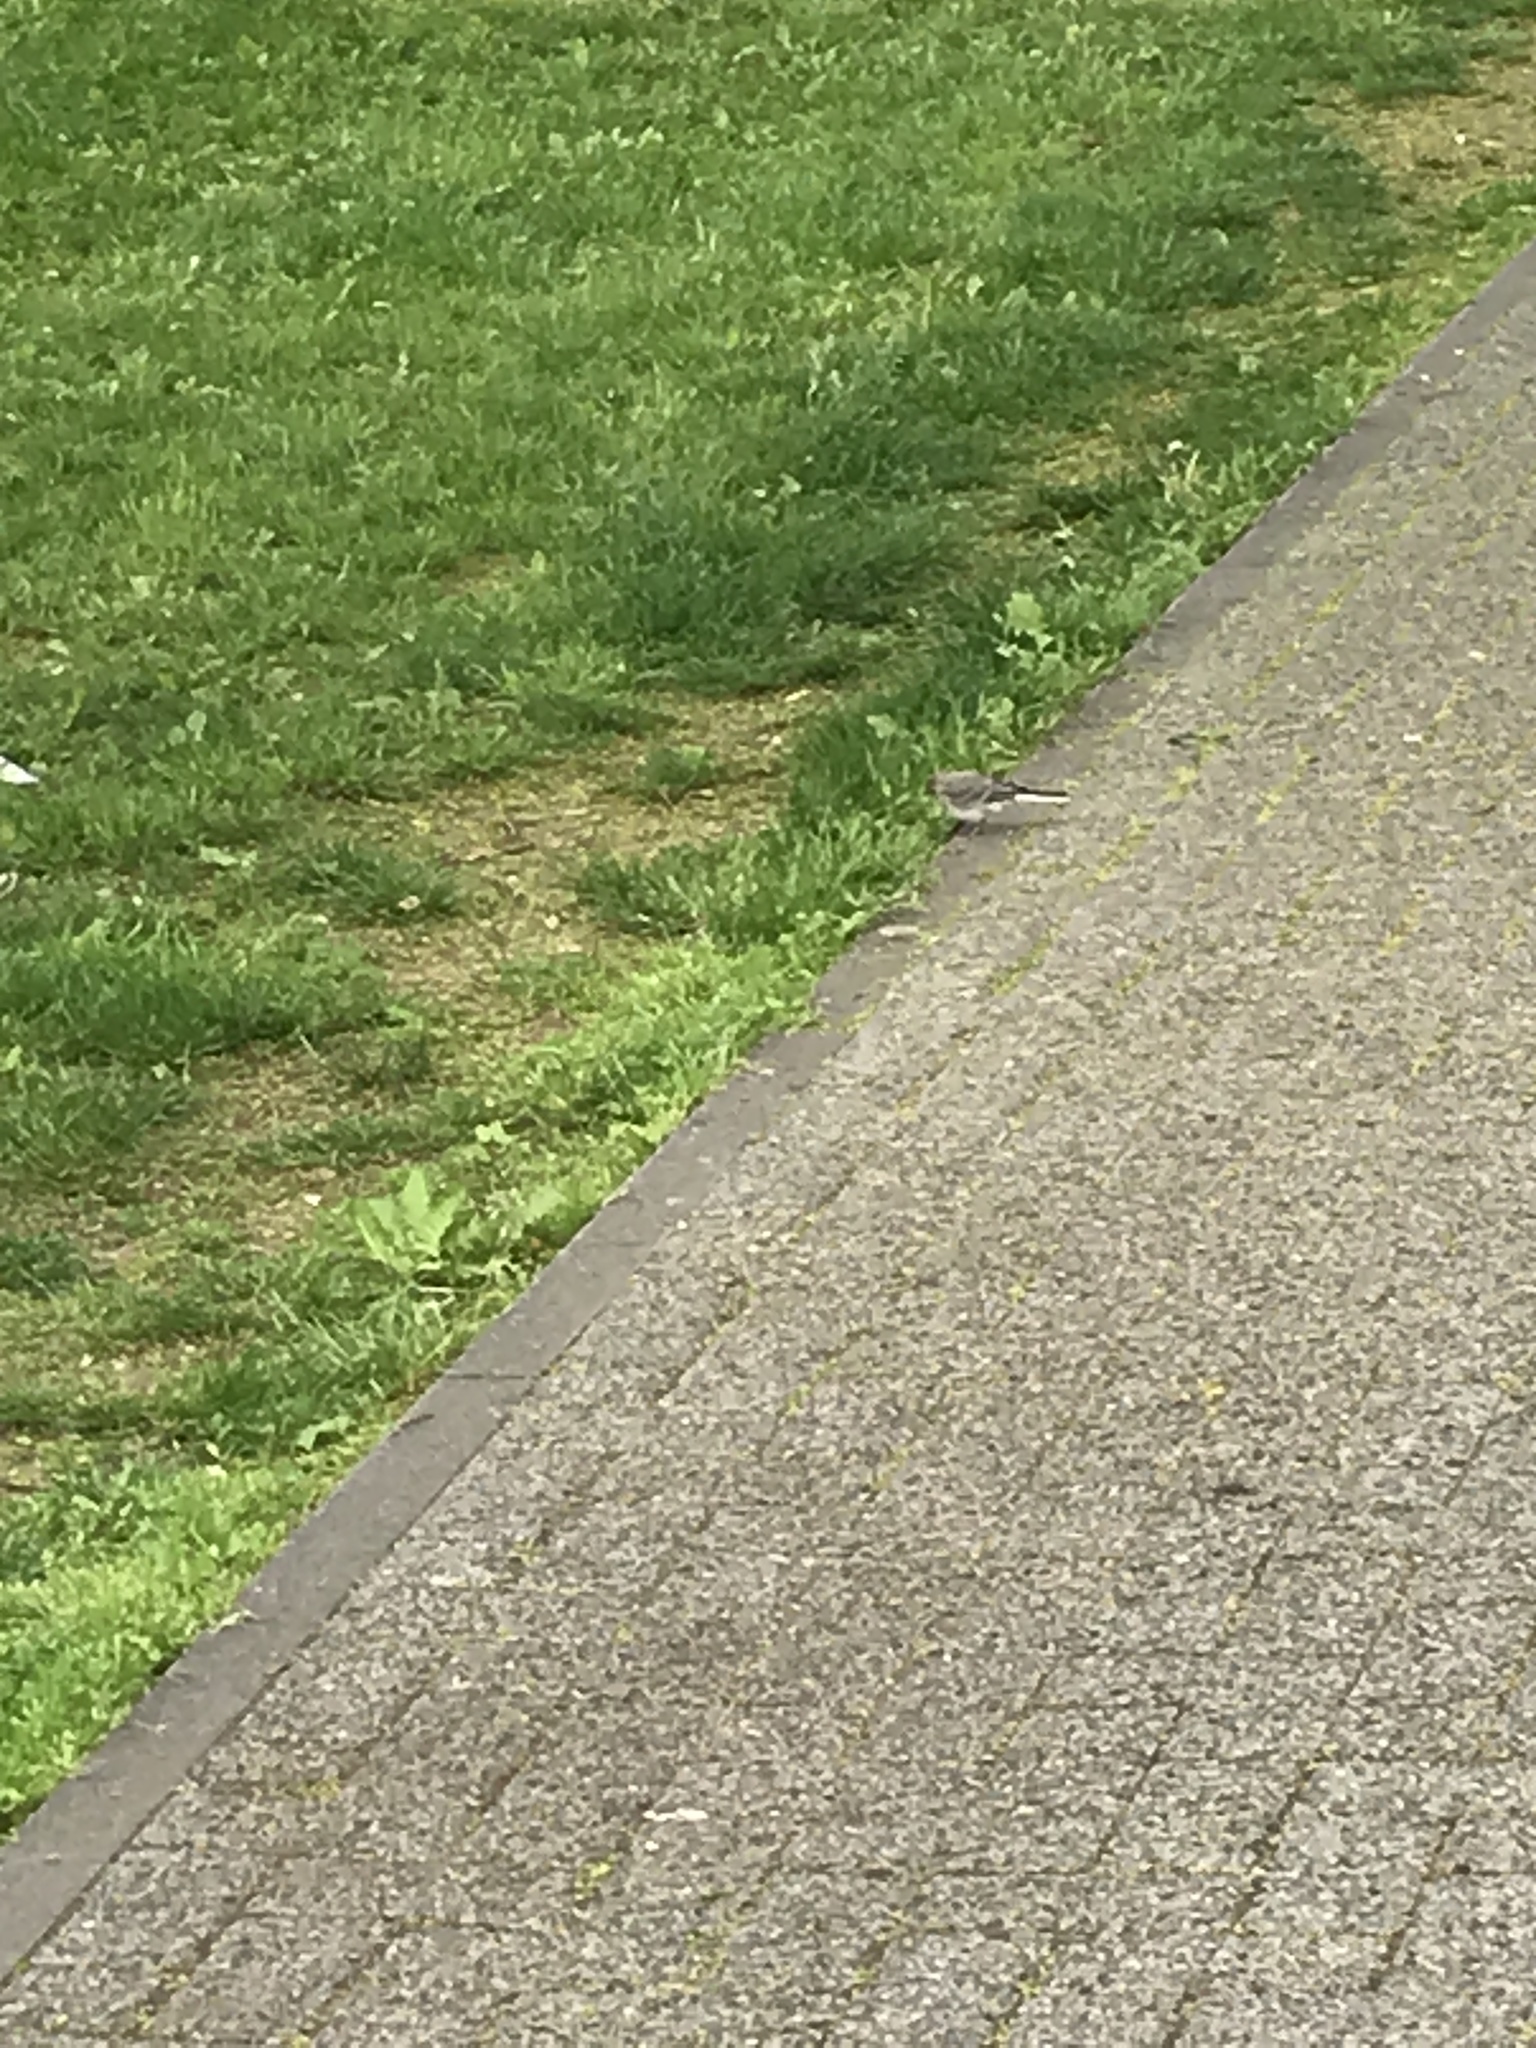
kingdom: Animalia
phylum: Chordata
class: Aves
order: Passeriformes
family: Motacillidae
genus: Motacilla
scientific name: Motacilla alba
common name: White wagtail
